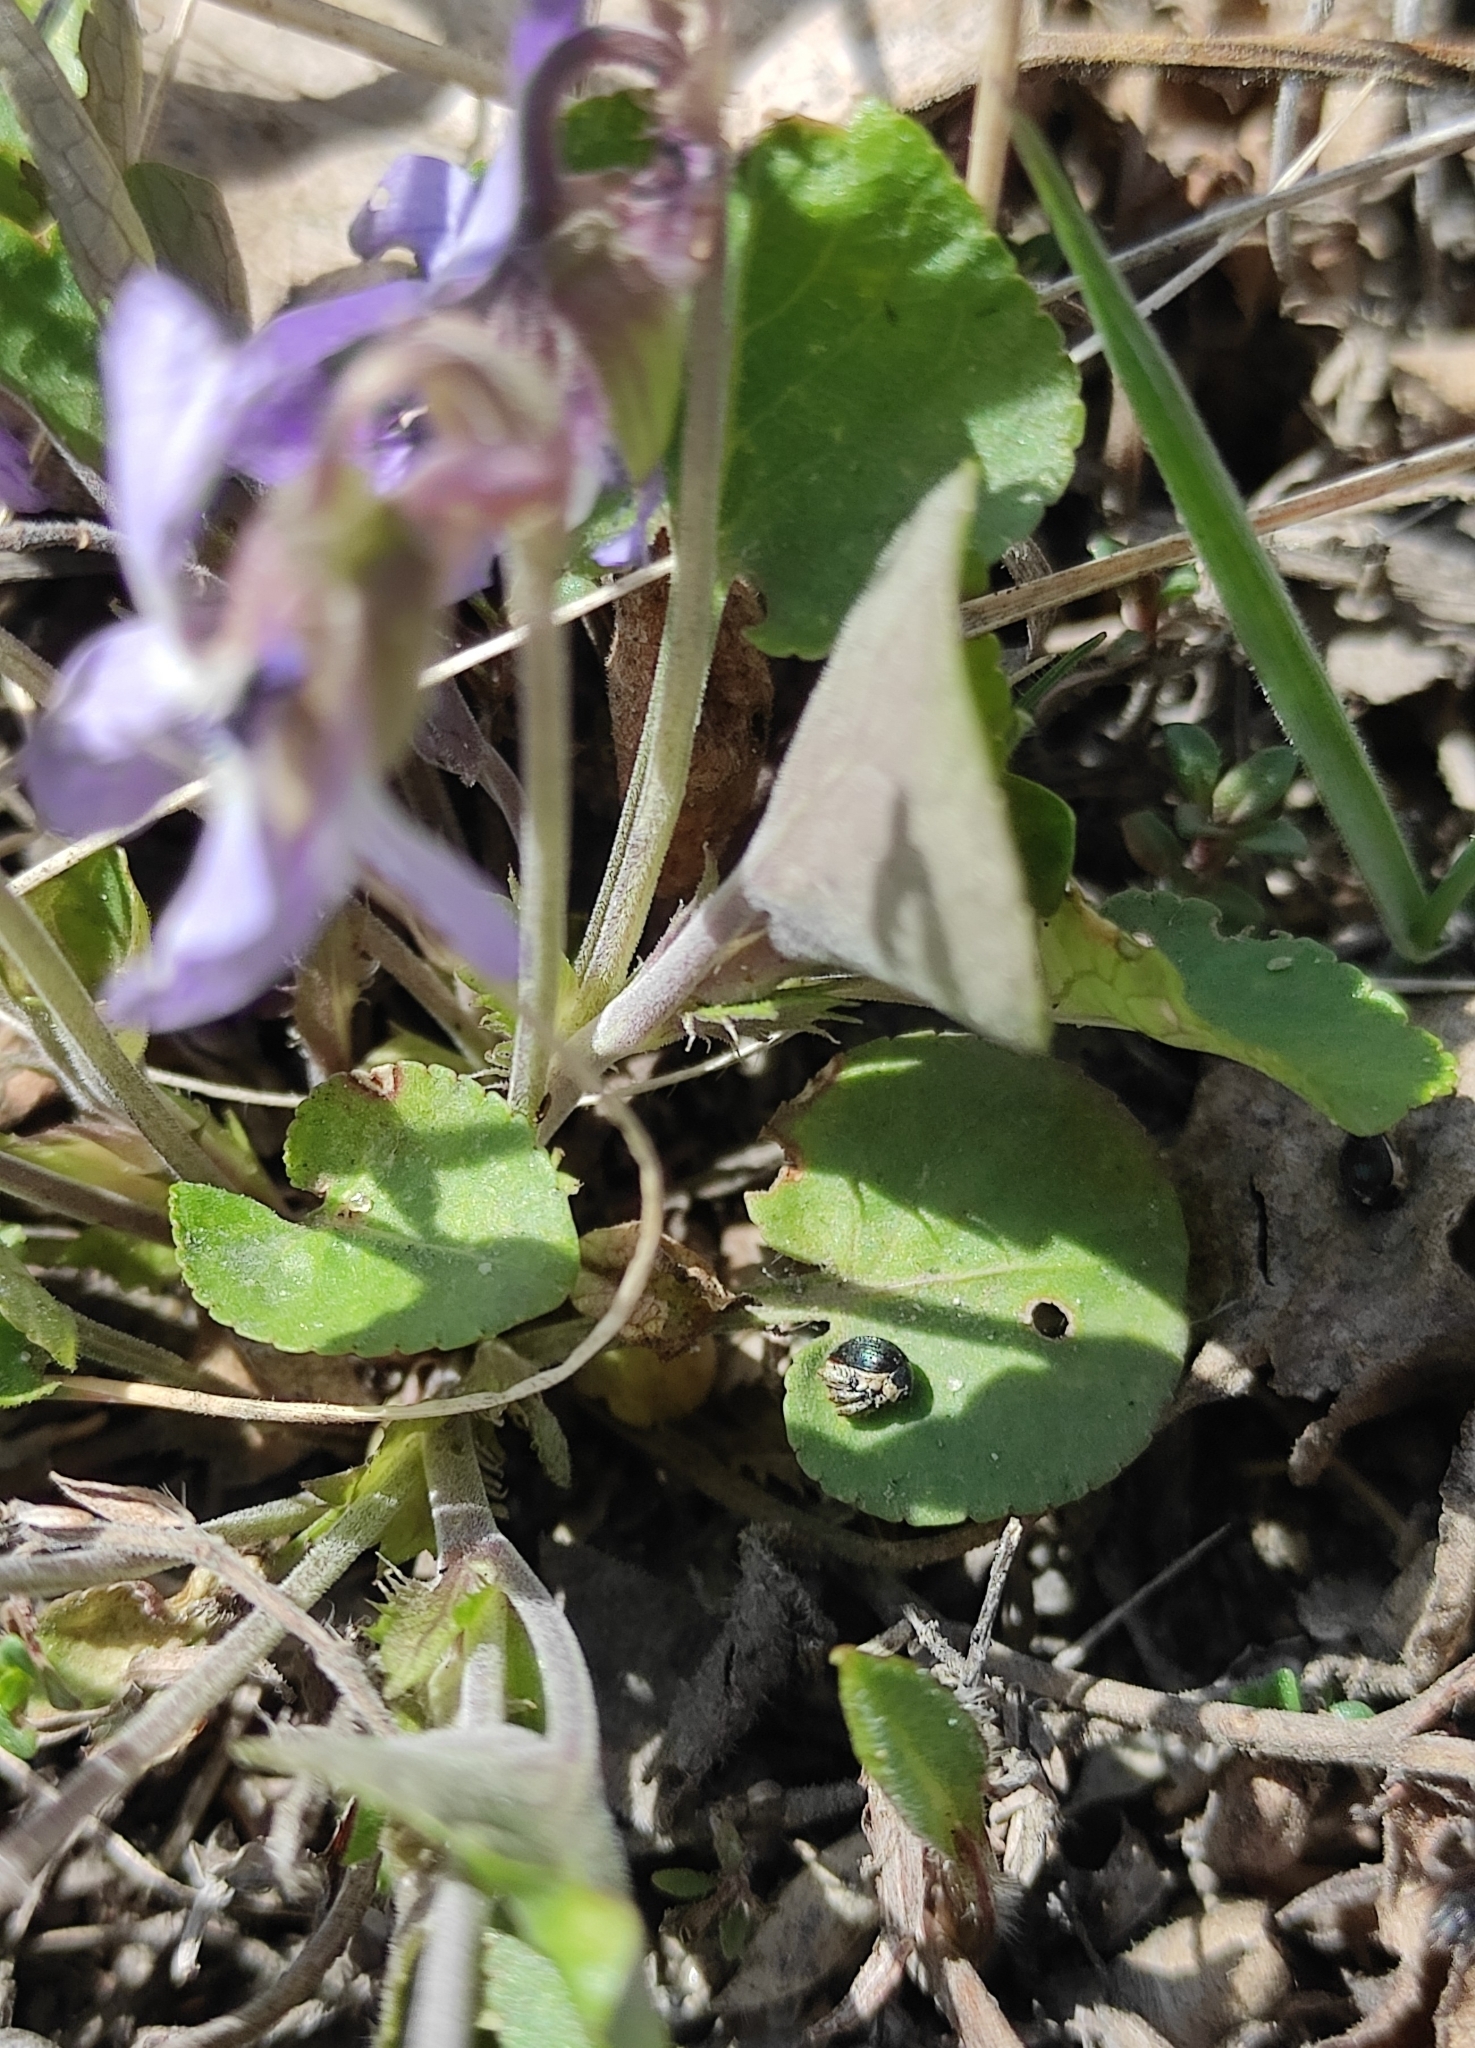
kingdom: Plantae
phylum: Tracheophyta
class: Magnoliopsida
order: Malpighiales
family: Violaceae
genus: Viola
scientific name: Viola rupestris
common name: Teesdale violet
